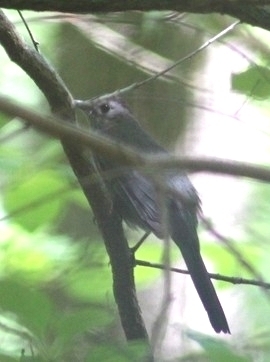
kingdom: Animalia
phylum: Chordata
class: Aves
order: Passeriformes
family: Mimidae
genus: Dumetella
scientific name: Dumetella carolinensis
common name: Gray catbird
